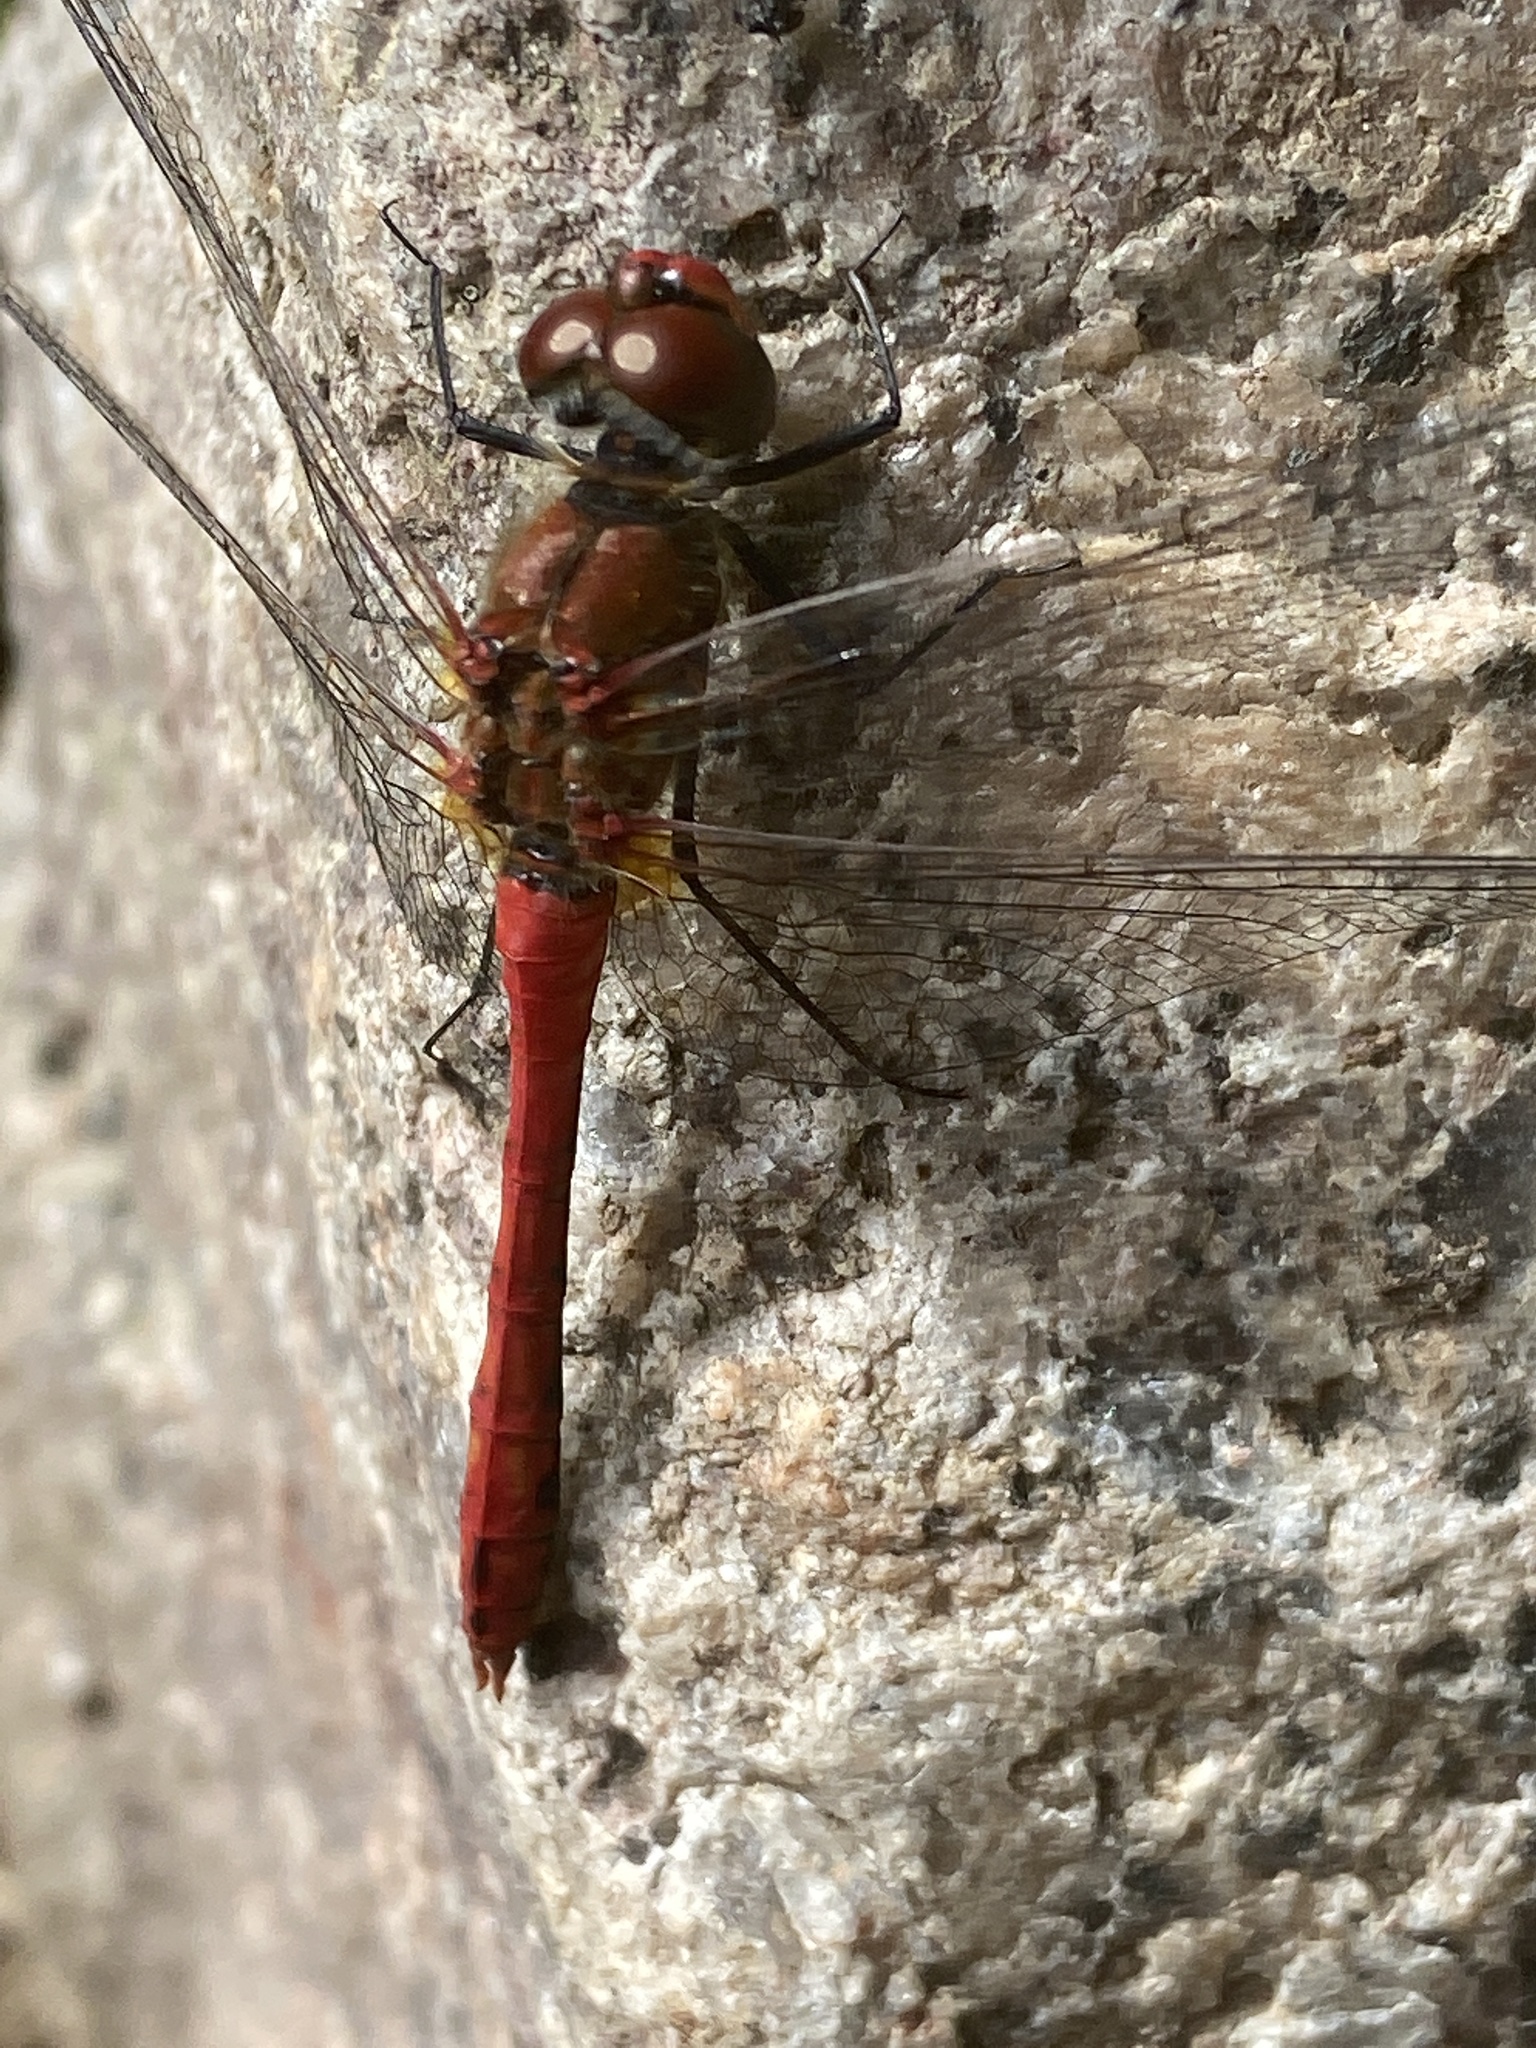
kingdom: Animalia
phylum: Arthropoda
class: Insecta
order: Odonata
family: Libellulidae
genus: Sympetrum
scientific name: Sympetrum sanguineum
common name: Ruddy darter
